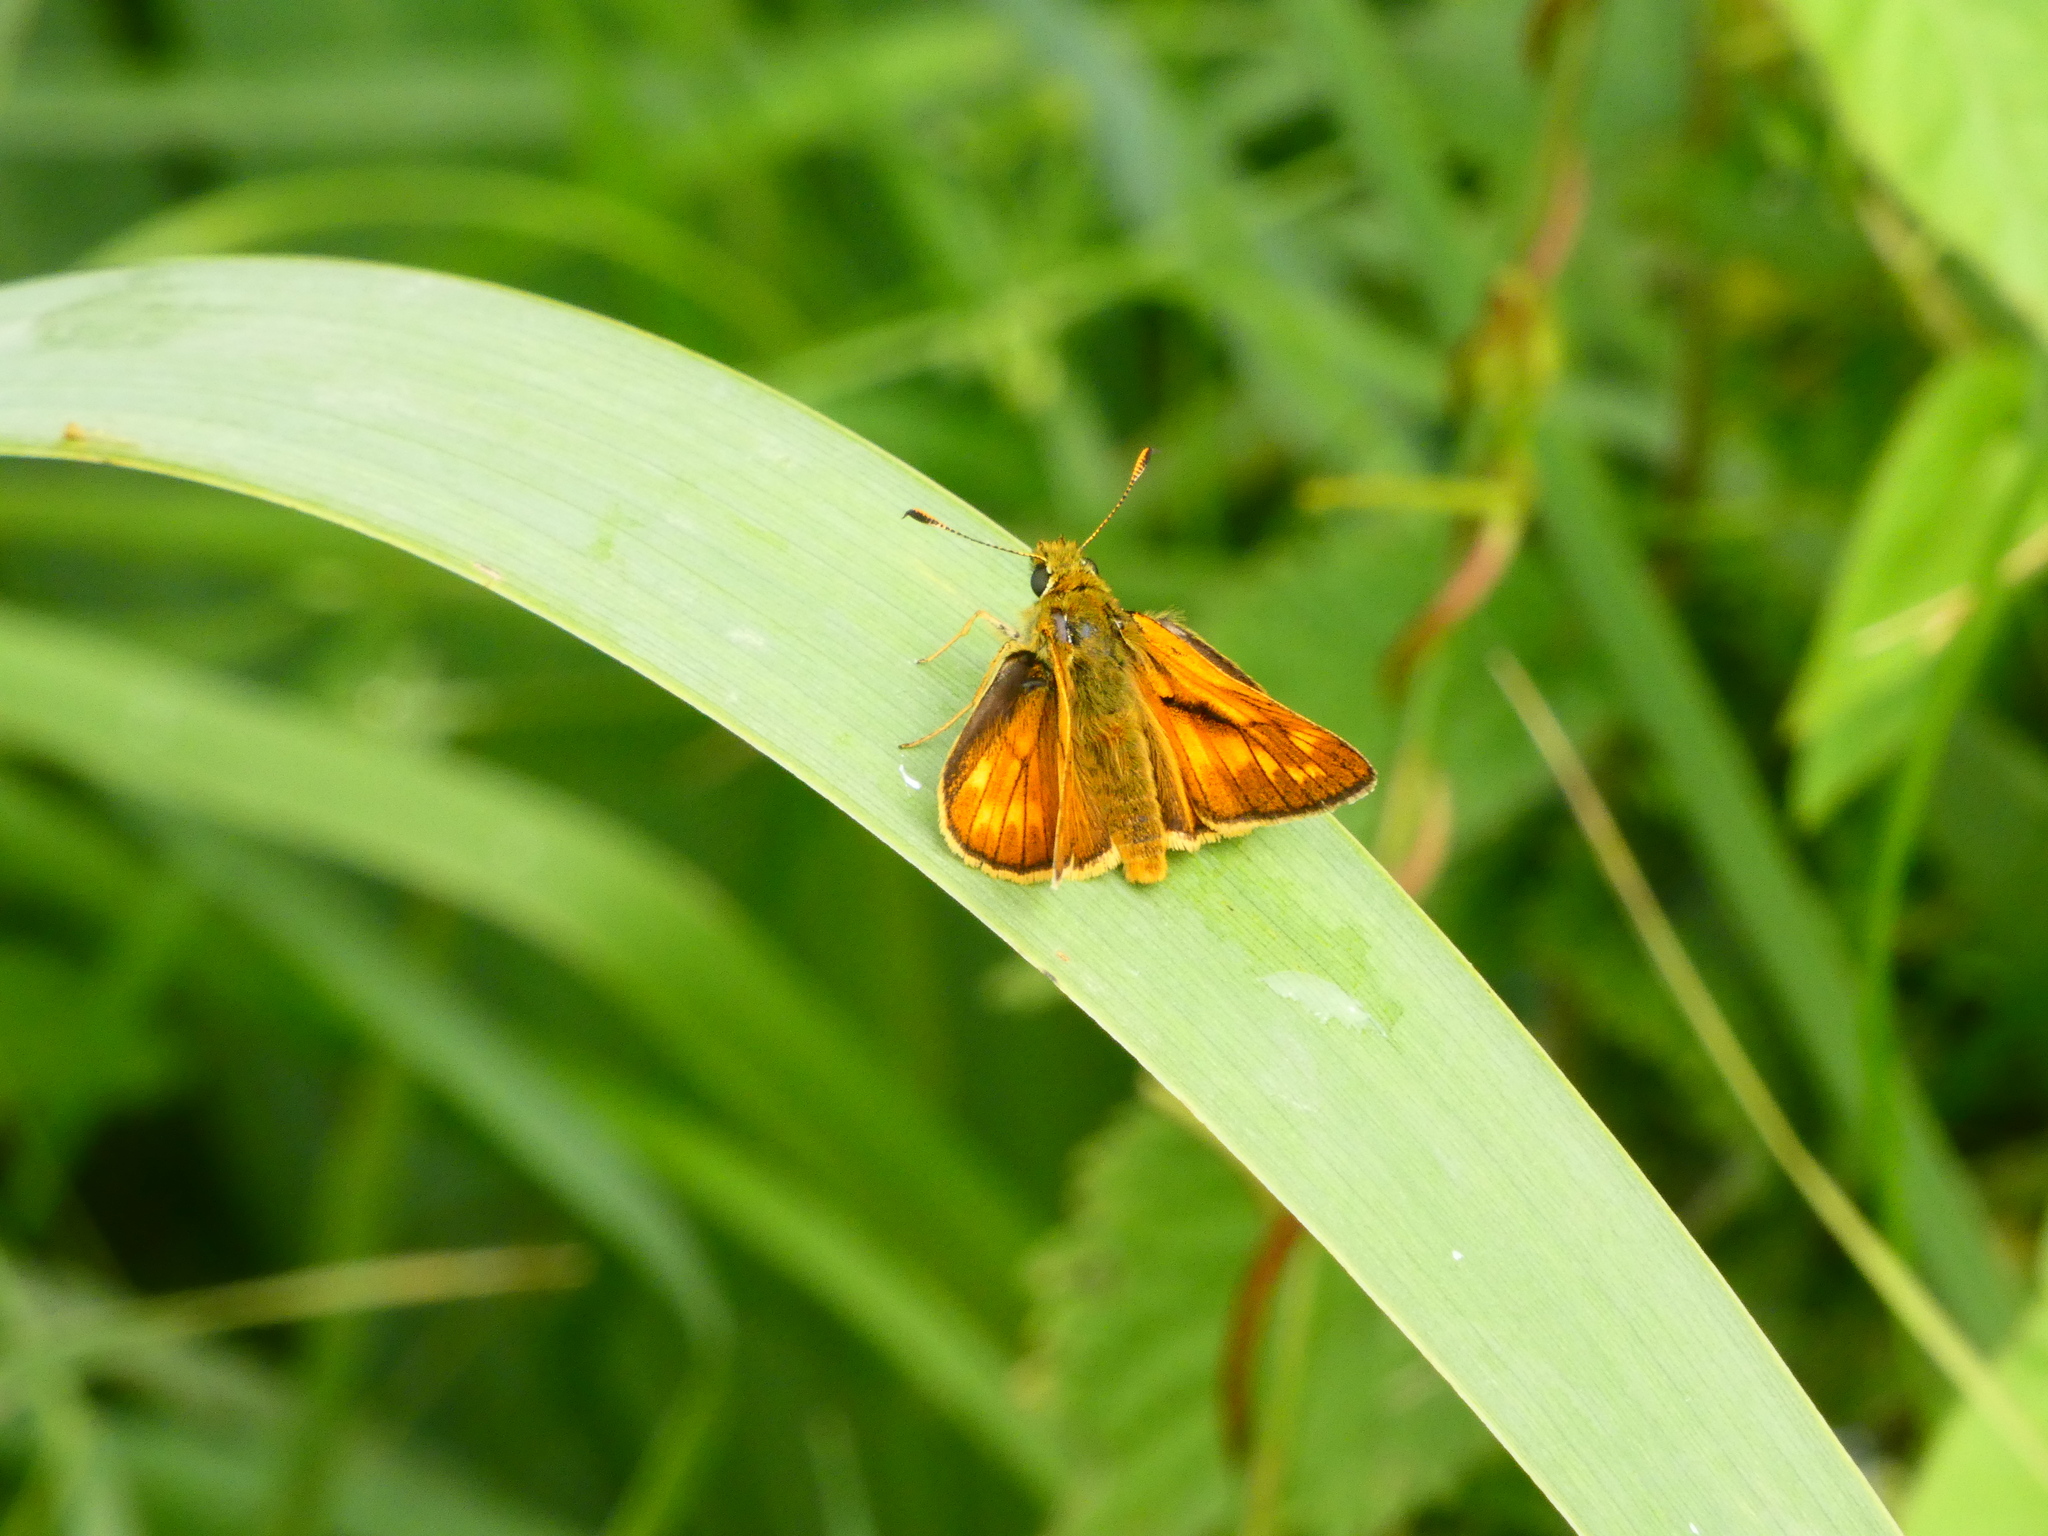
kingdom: Animalia
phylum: Arthropoda
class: Insecta
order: Lepidoptera
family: Hesperiidae
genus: Ochlodes
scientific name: Ochlodes venata
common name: Large skipper
